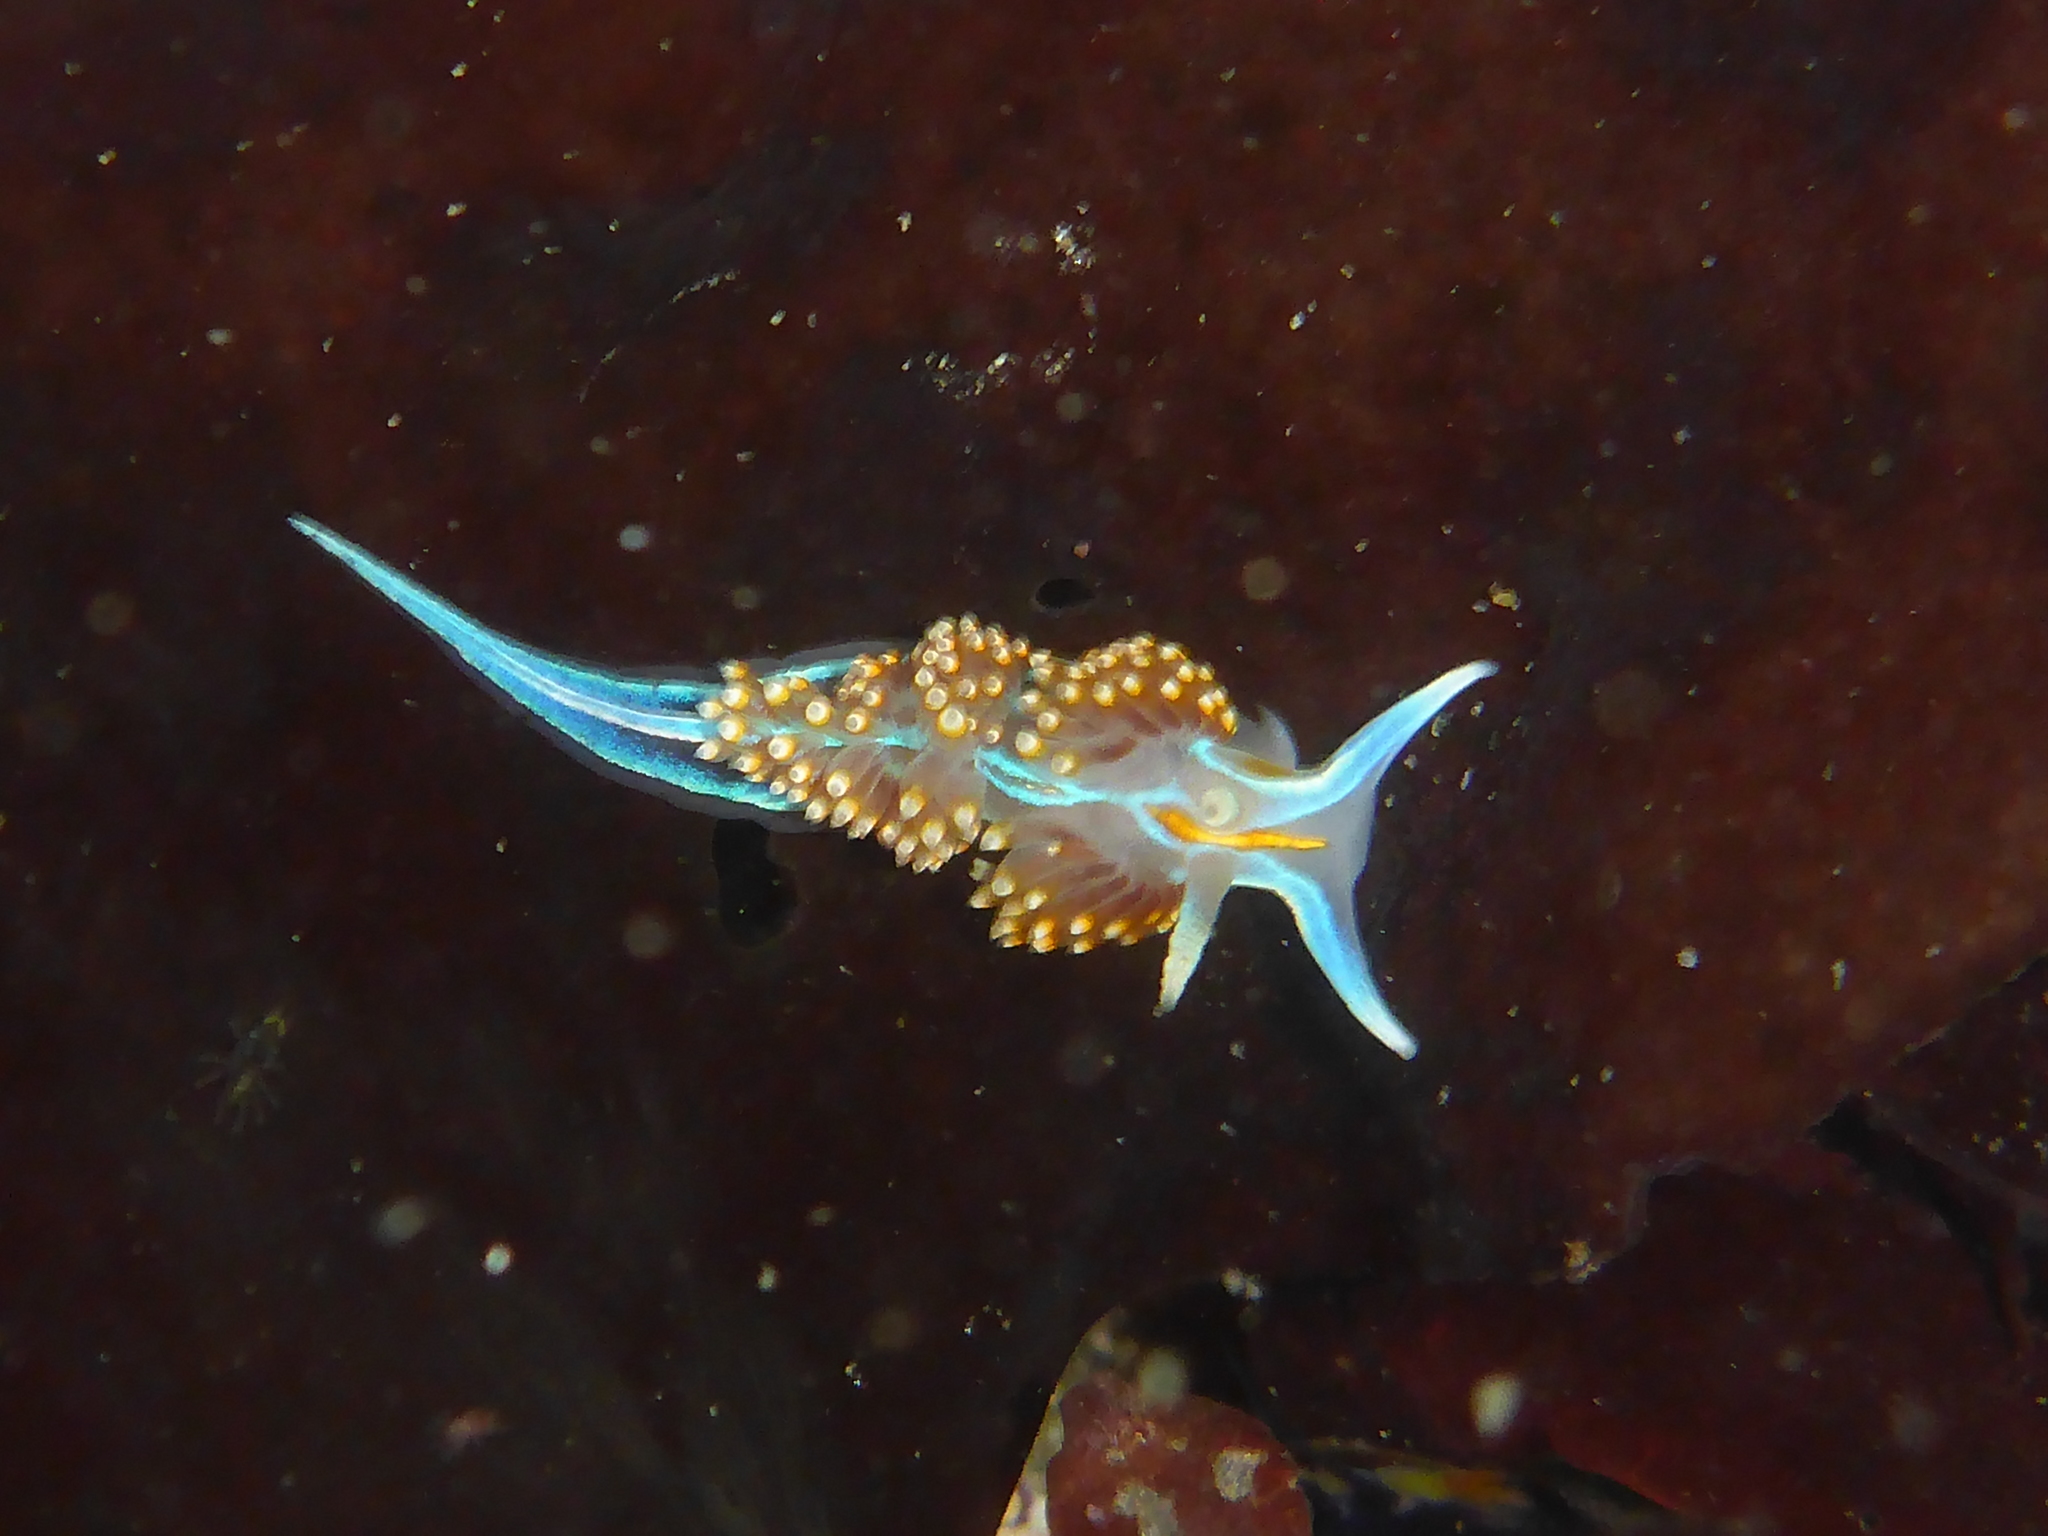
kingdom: Animalia
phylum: Mollusca
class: Gastropoda
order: Nudibranchia
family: Myrrhinidae
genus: Hermissenda
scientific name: Hermissenda opalescens
